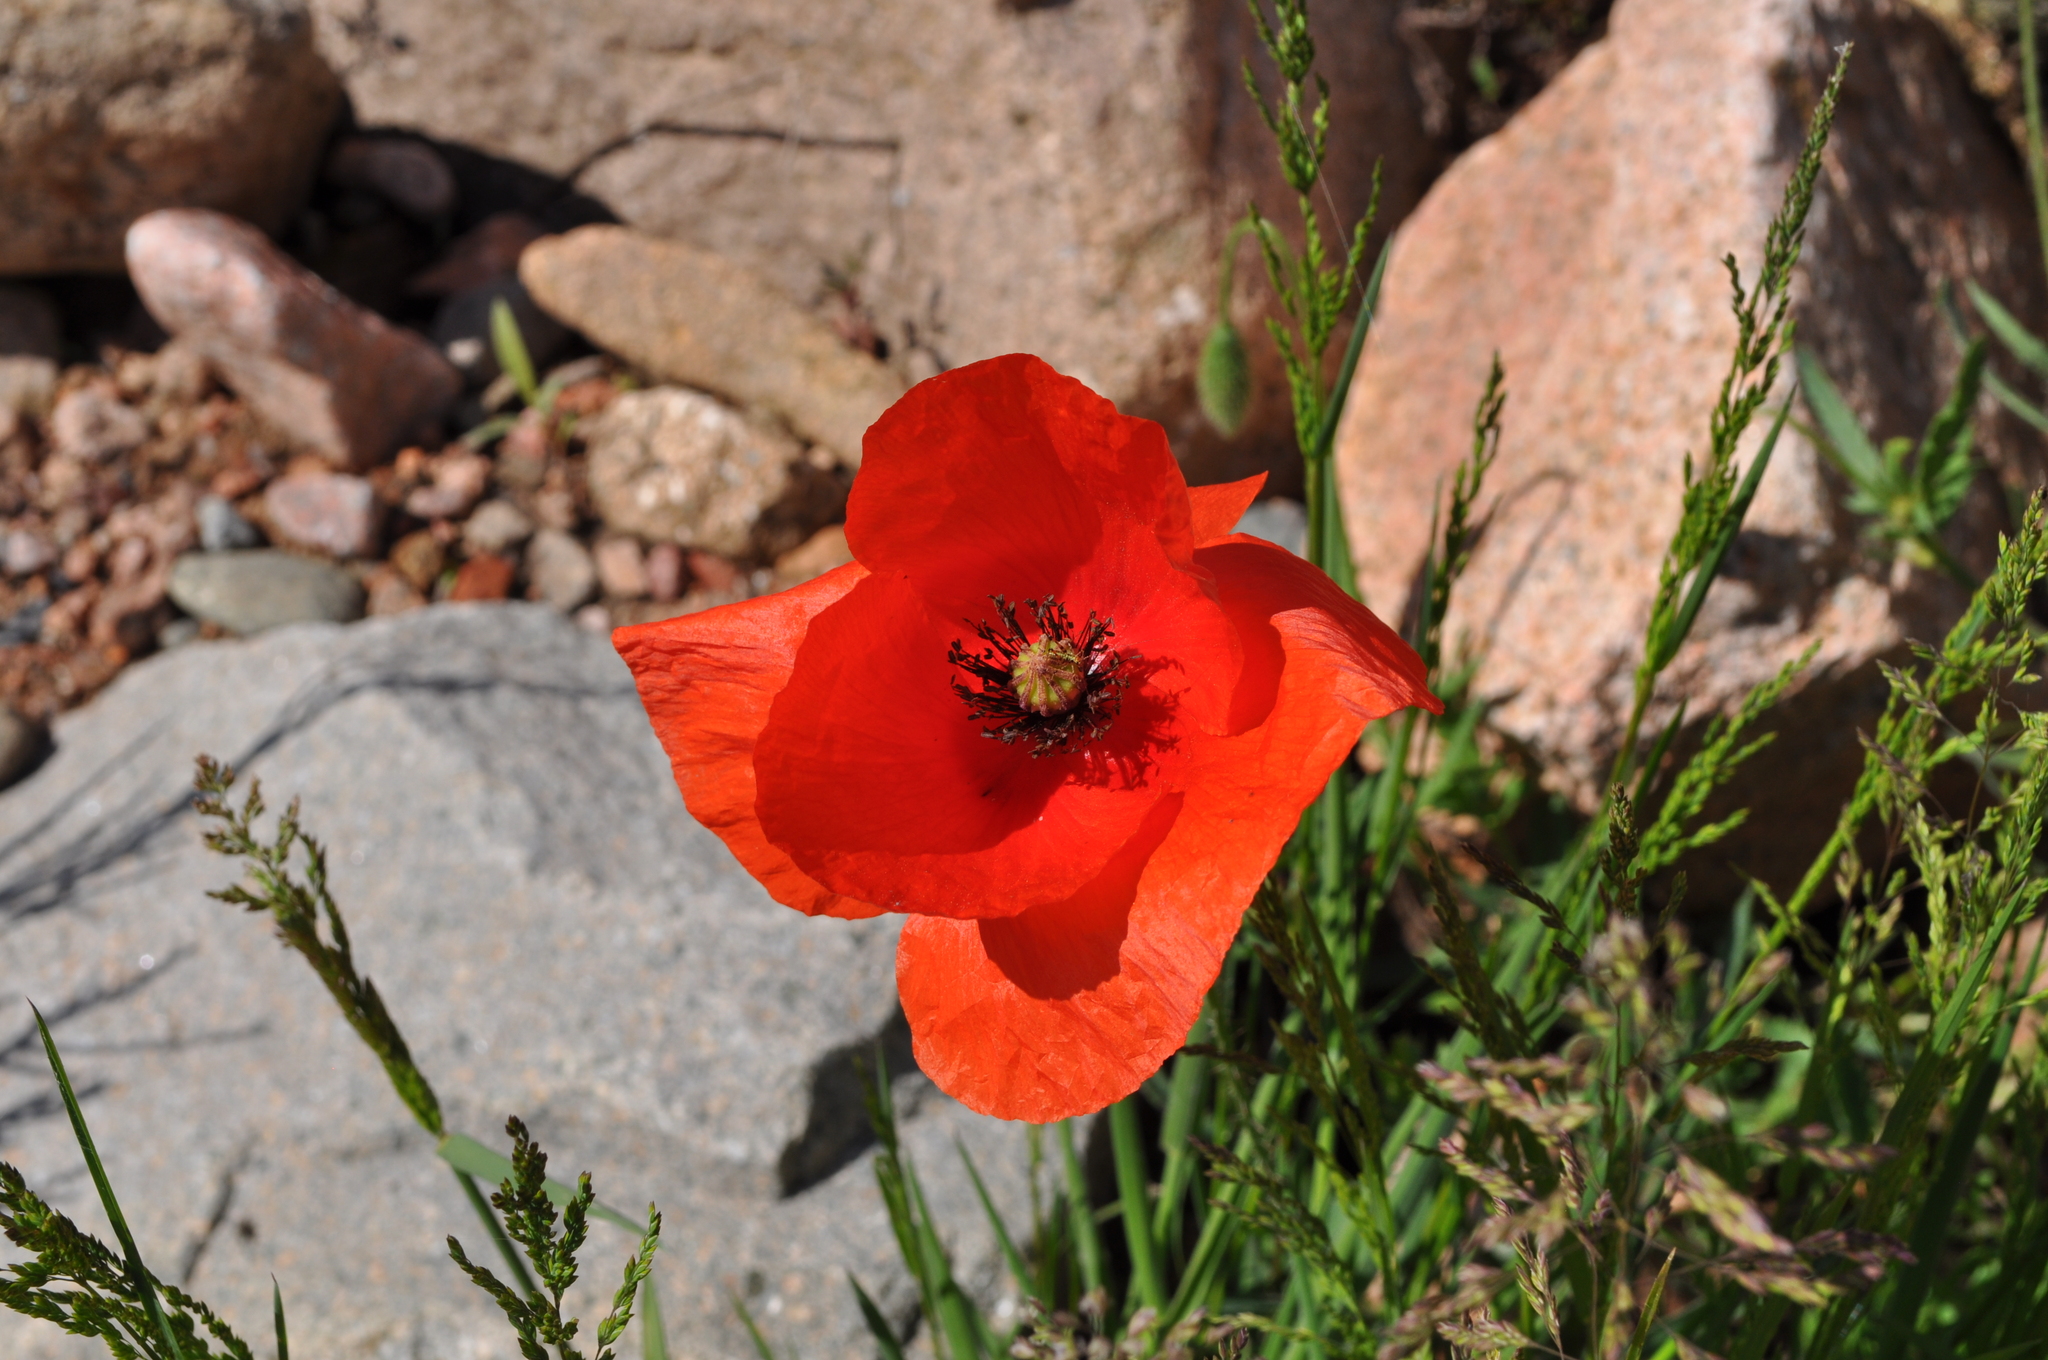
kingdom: Plantae
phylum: Tracheophyta
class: Magnoliopsida
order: Ranunculales
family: Papaveraceae
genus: Papaver
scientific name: Papaver rhoeas
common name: Corn poppy
